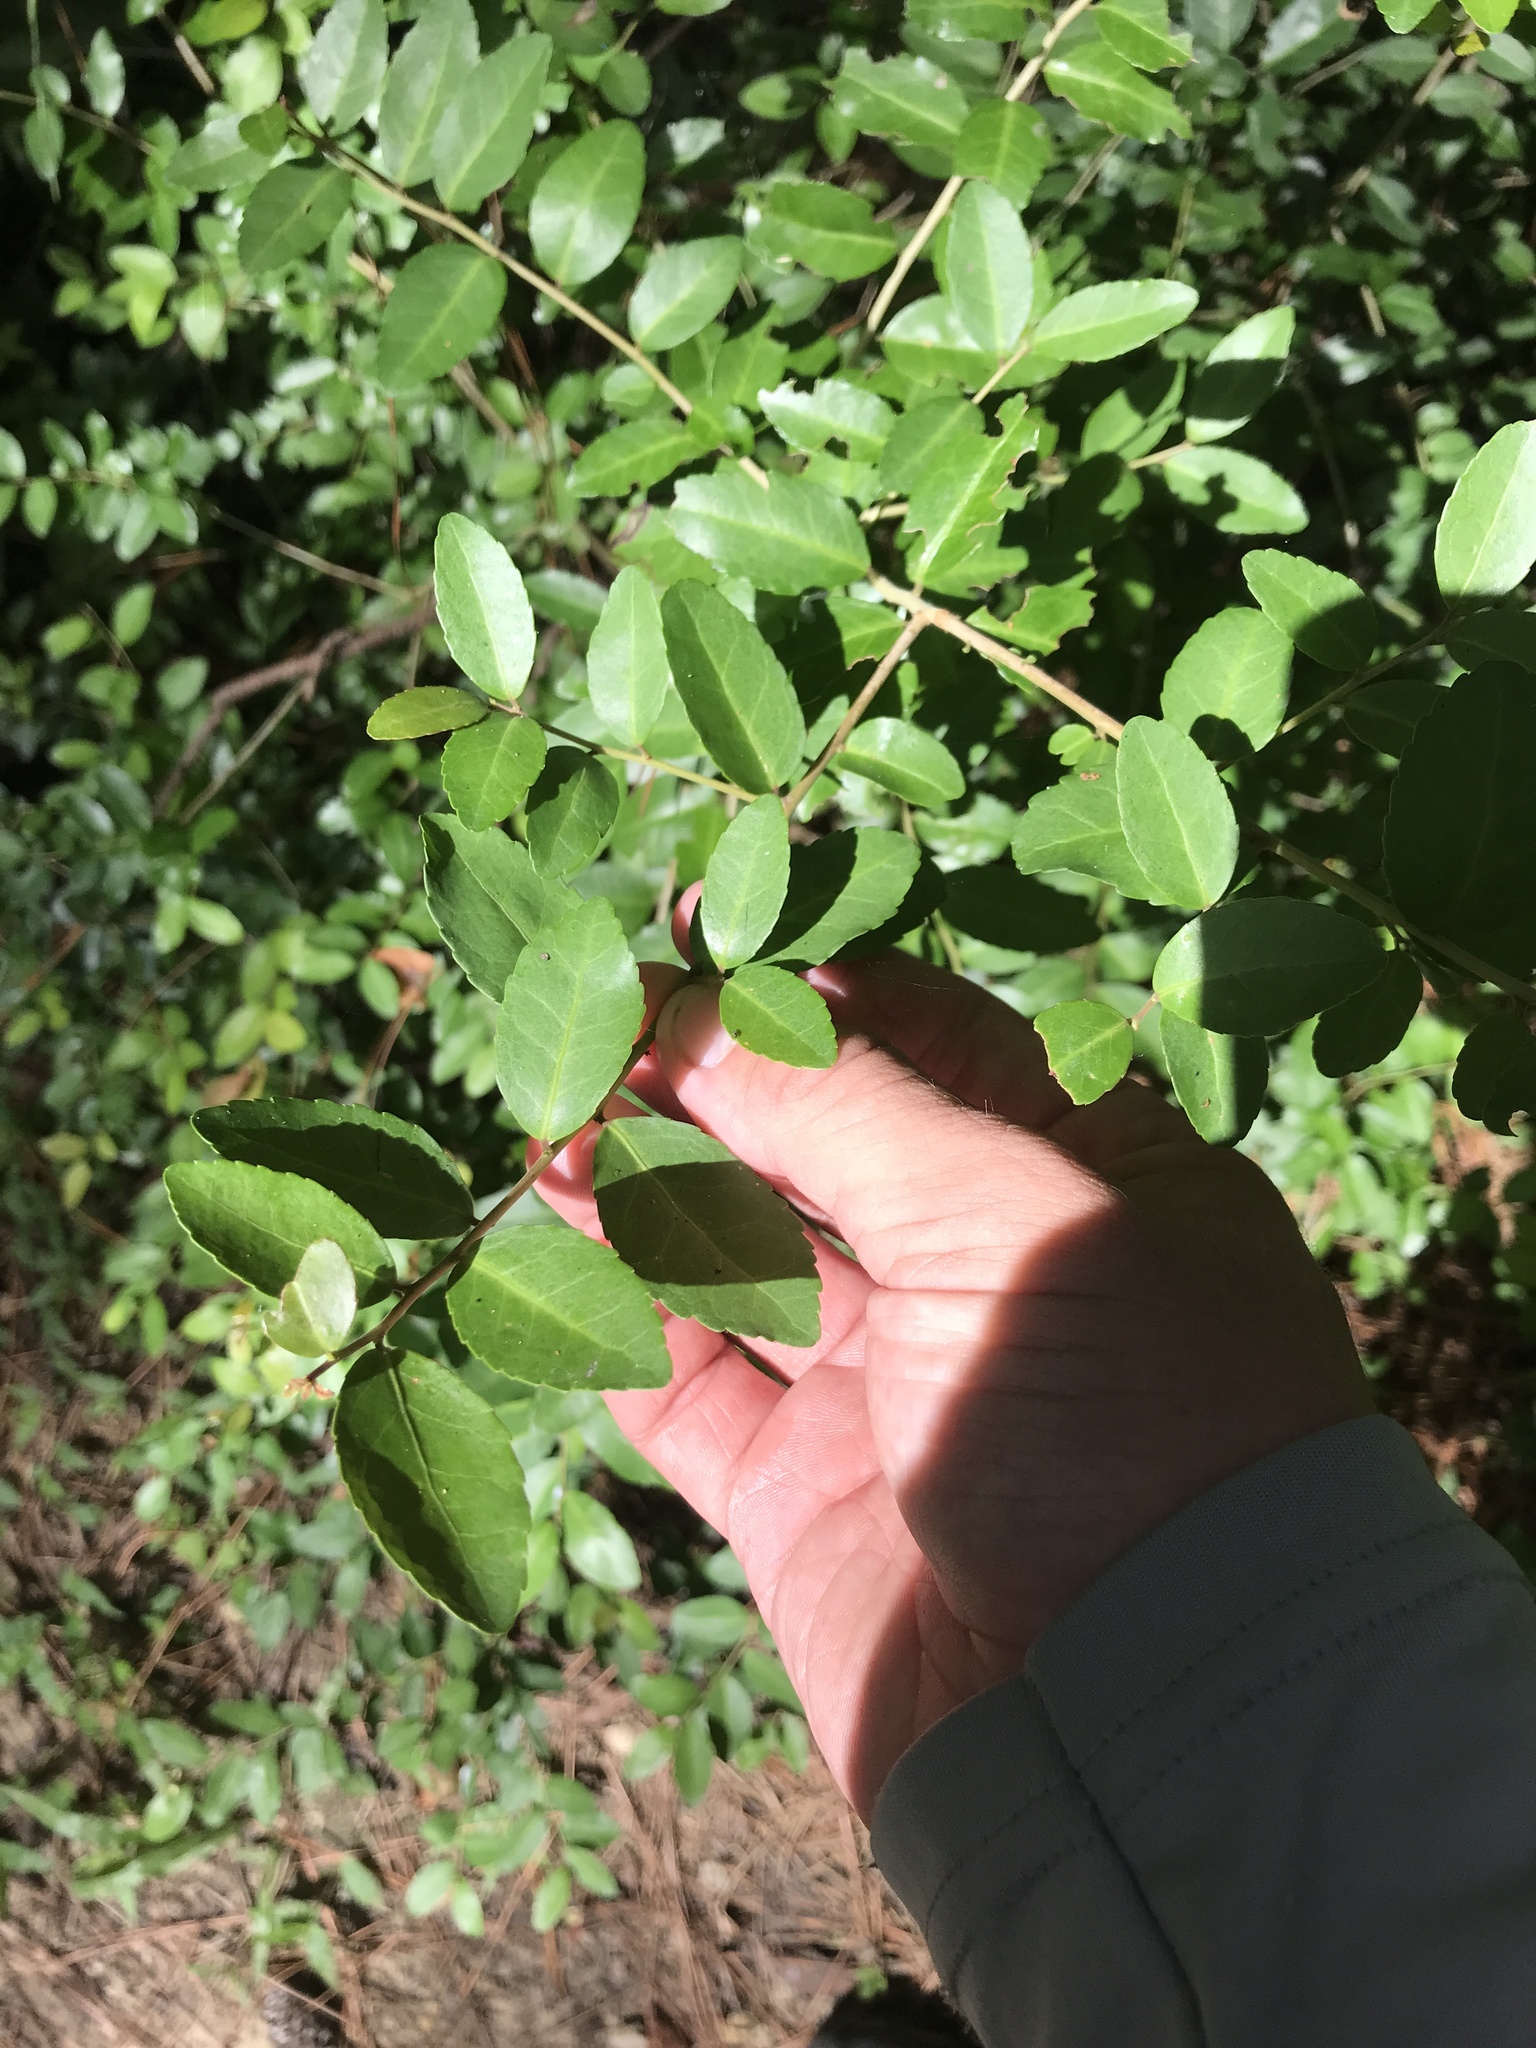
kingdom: Plantae
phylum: Tracheophyta
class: Magnoliopsida
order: Aquifoliales
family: Aquifoliaceae
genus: Ilex
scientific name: Ilex vomitoria
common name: Yaupon holly
